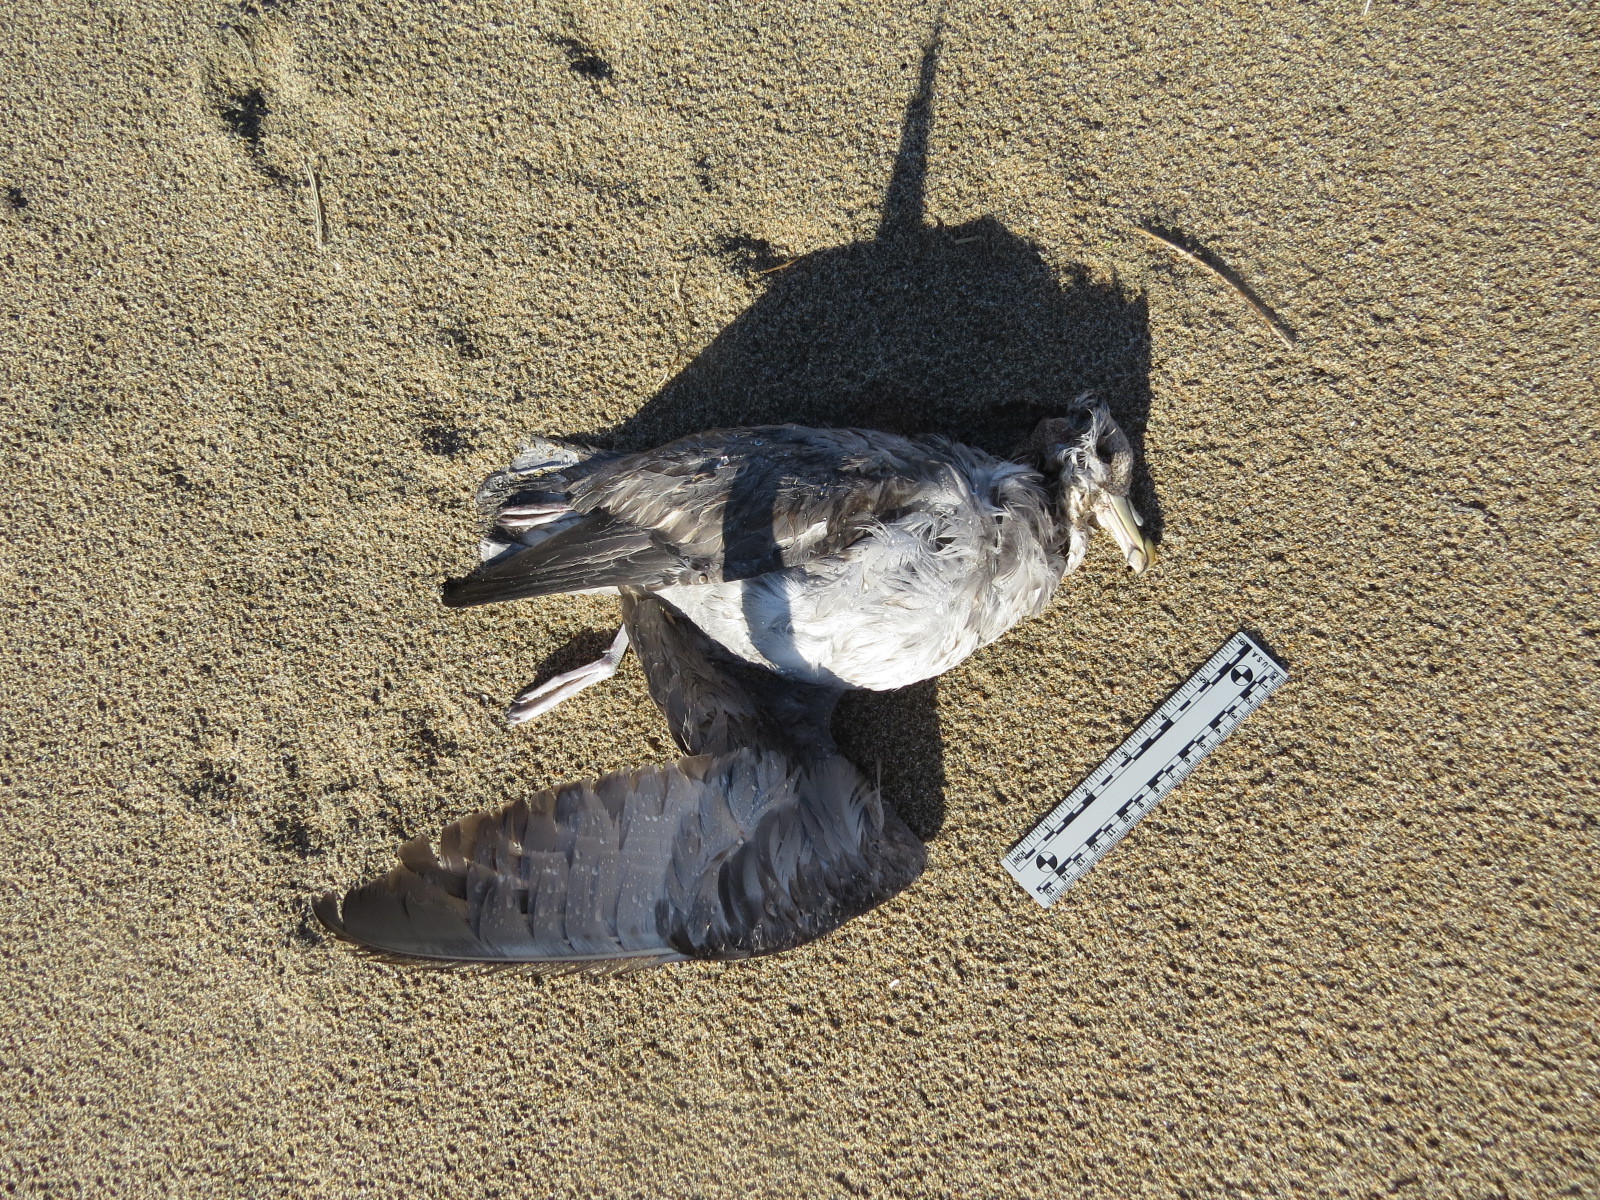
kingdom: Animalia
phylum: Chordata
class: Aves
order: Procellariiformes
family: Procellariidae
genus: Fulmarus
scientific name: Fulmarus glacialis
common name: Northern fulmar
